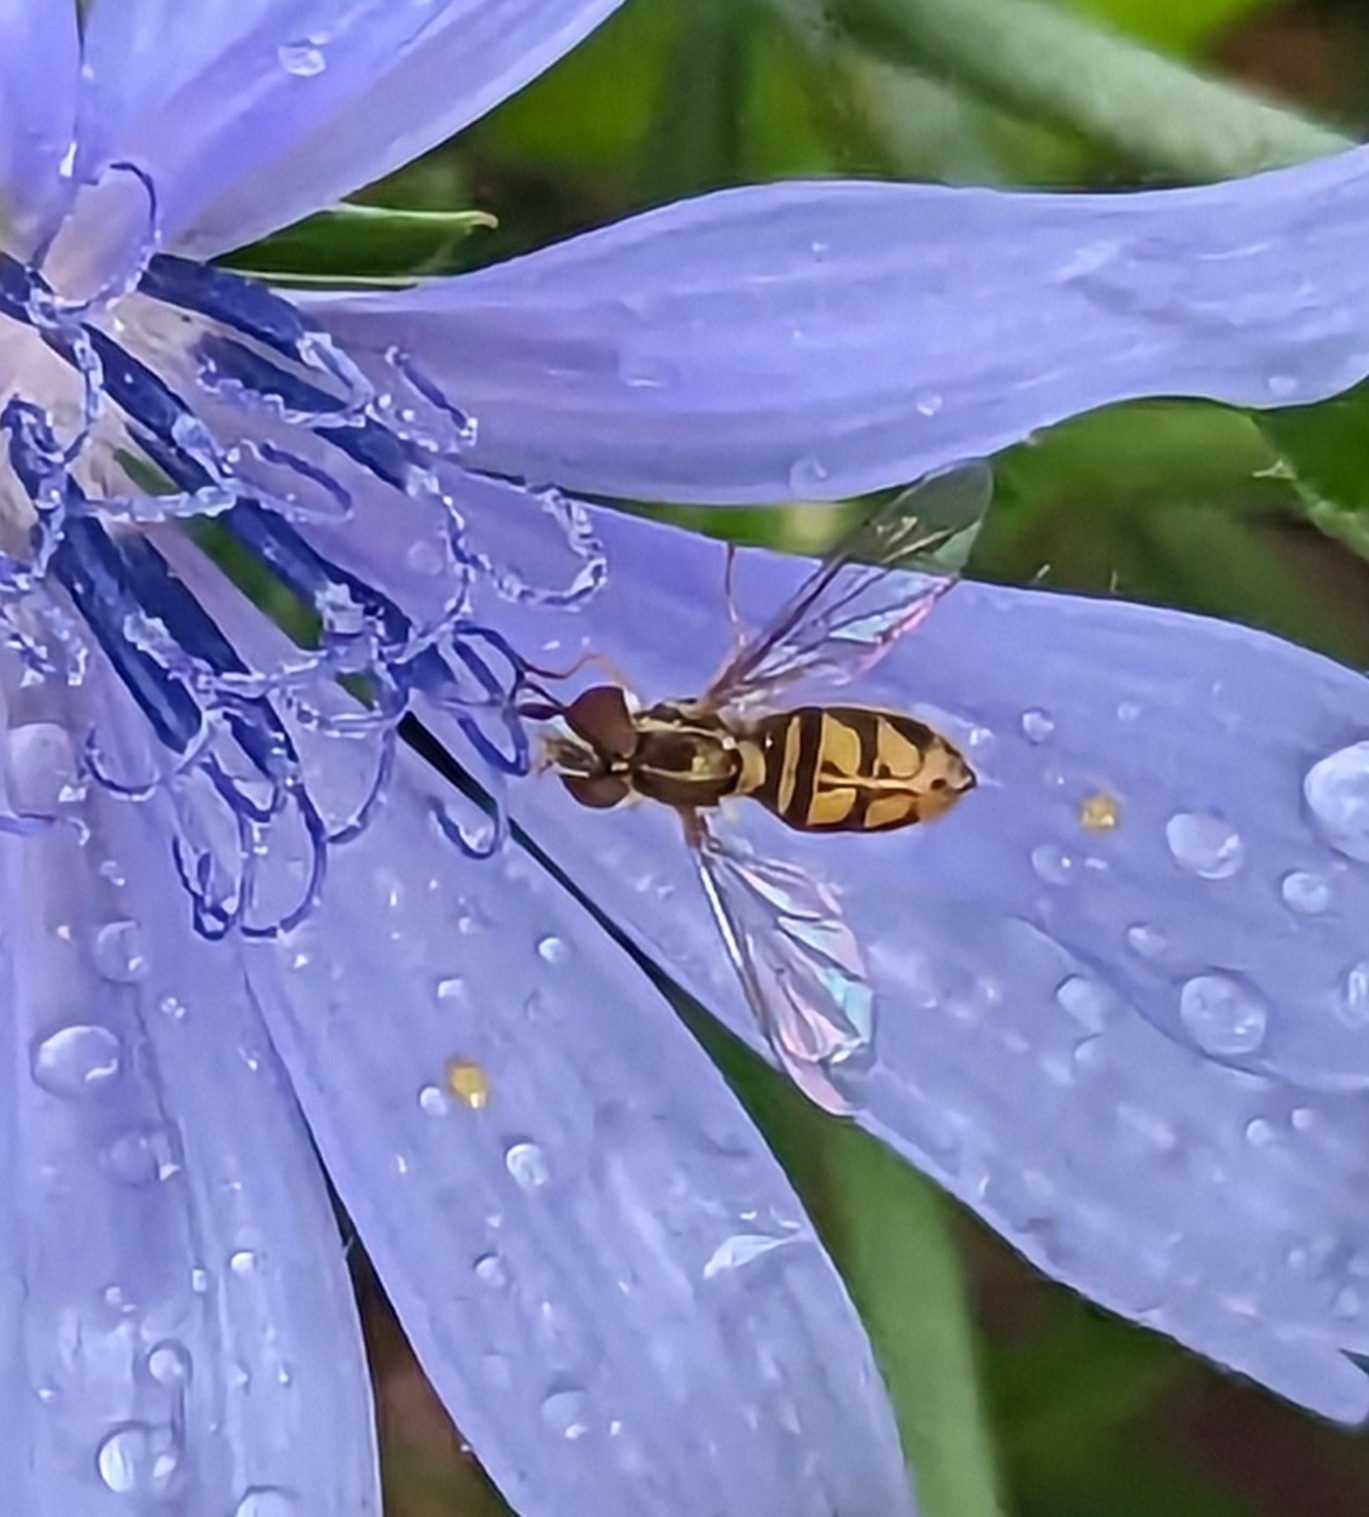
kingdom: Animalia
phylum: Arthropoda
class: Insecta
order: Diptera
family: Syrphidae
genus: Toxomerus
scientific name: Toxomerus marginatus
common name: Syrphid fly
